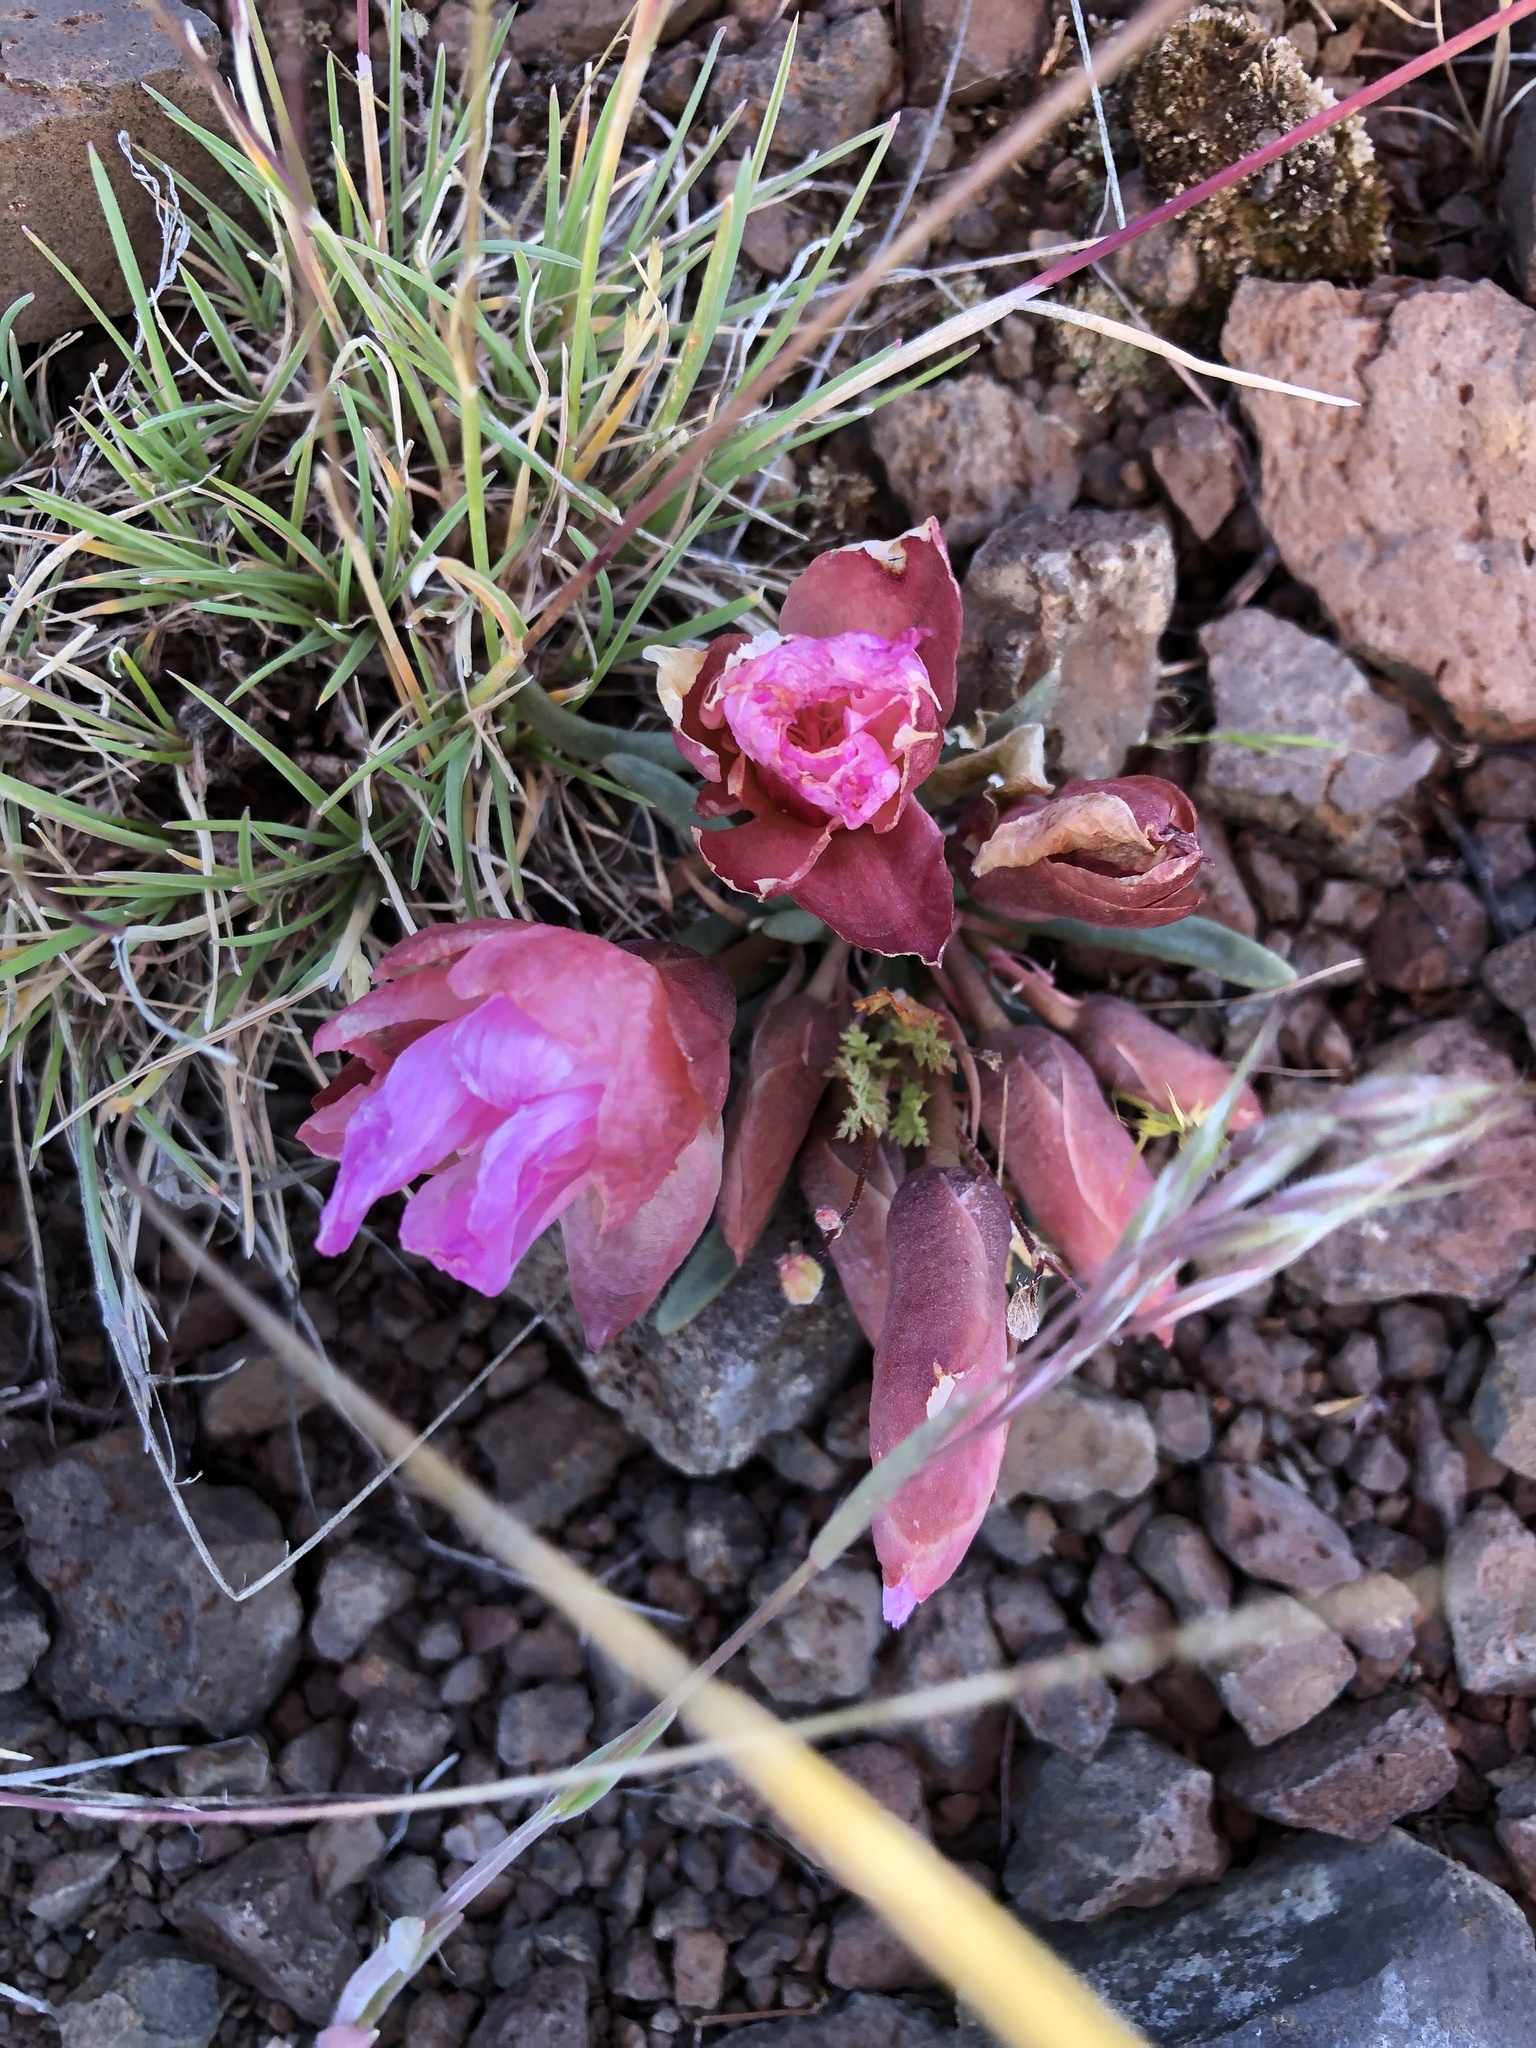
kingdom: Plantae
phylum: Tracheophyta
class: Magnoliopsida
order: Caryophyllales
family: Montiaceae
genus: Lewisia
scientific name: Lewisia rediviva
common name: Bitter-root
